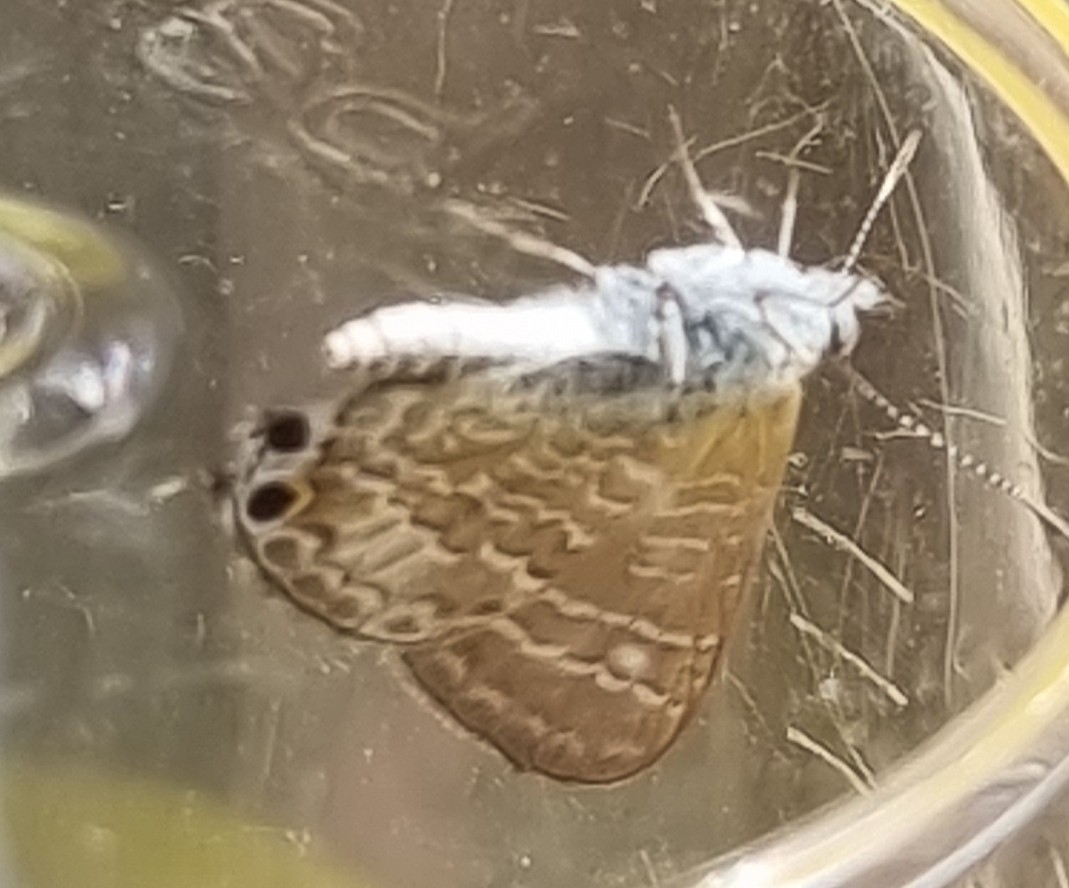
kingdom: Animalia
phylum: Arthropoda
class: Insecta
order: Lepidoptera
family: Lycaenidae
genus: Theclinesthes
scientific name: Theclinesthes onycha
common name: Cycad blue
